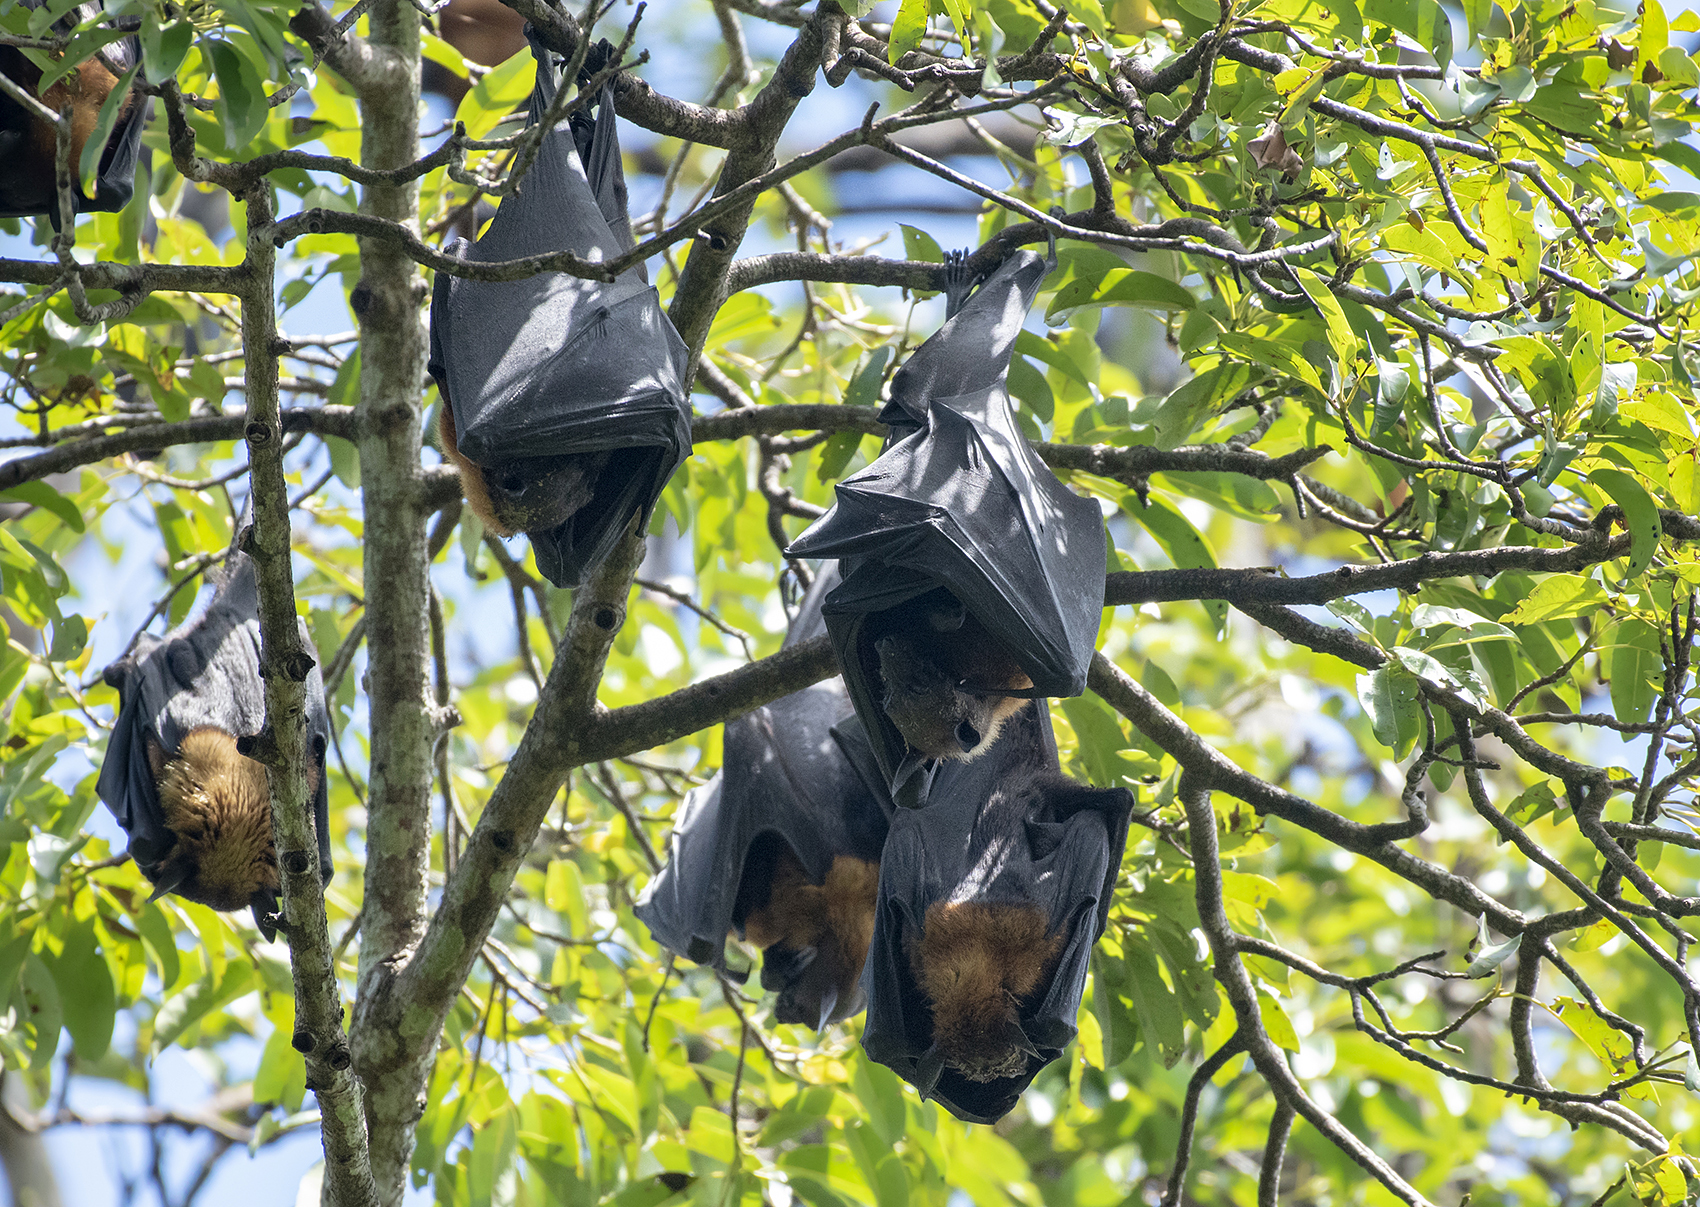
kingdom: Animalia
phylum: Chordata
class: Mammalia
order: Chiroptera
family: Pteropodidae
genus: Pteropus
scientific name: Pteropus vampyrus
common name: Large flying fox
